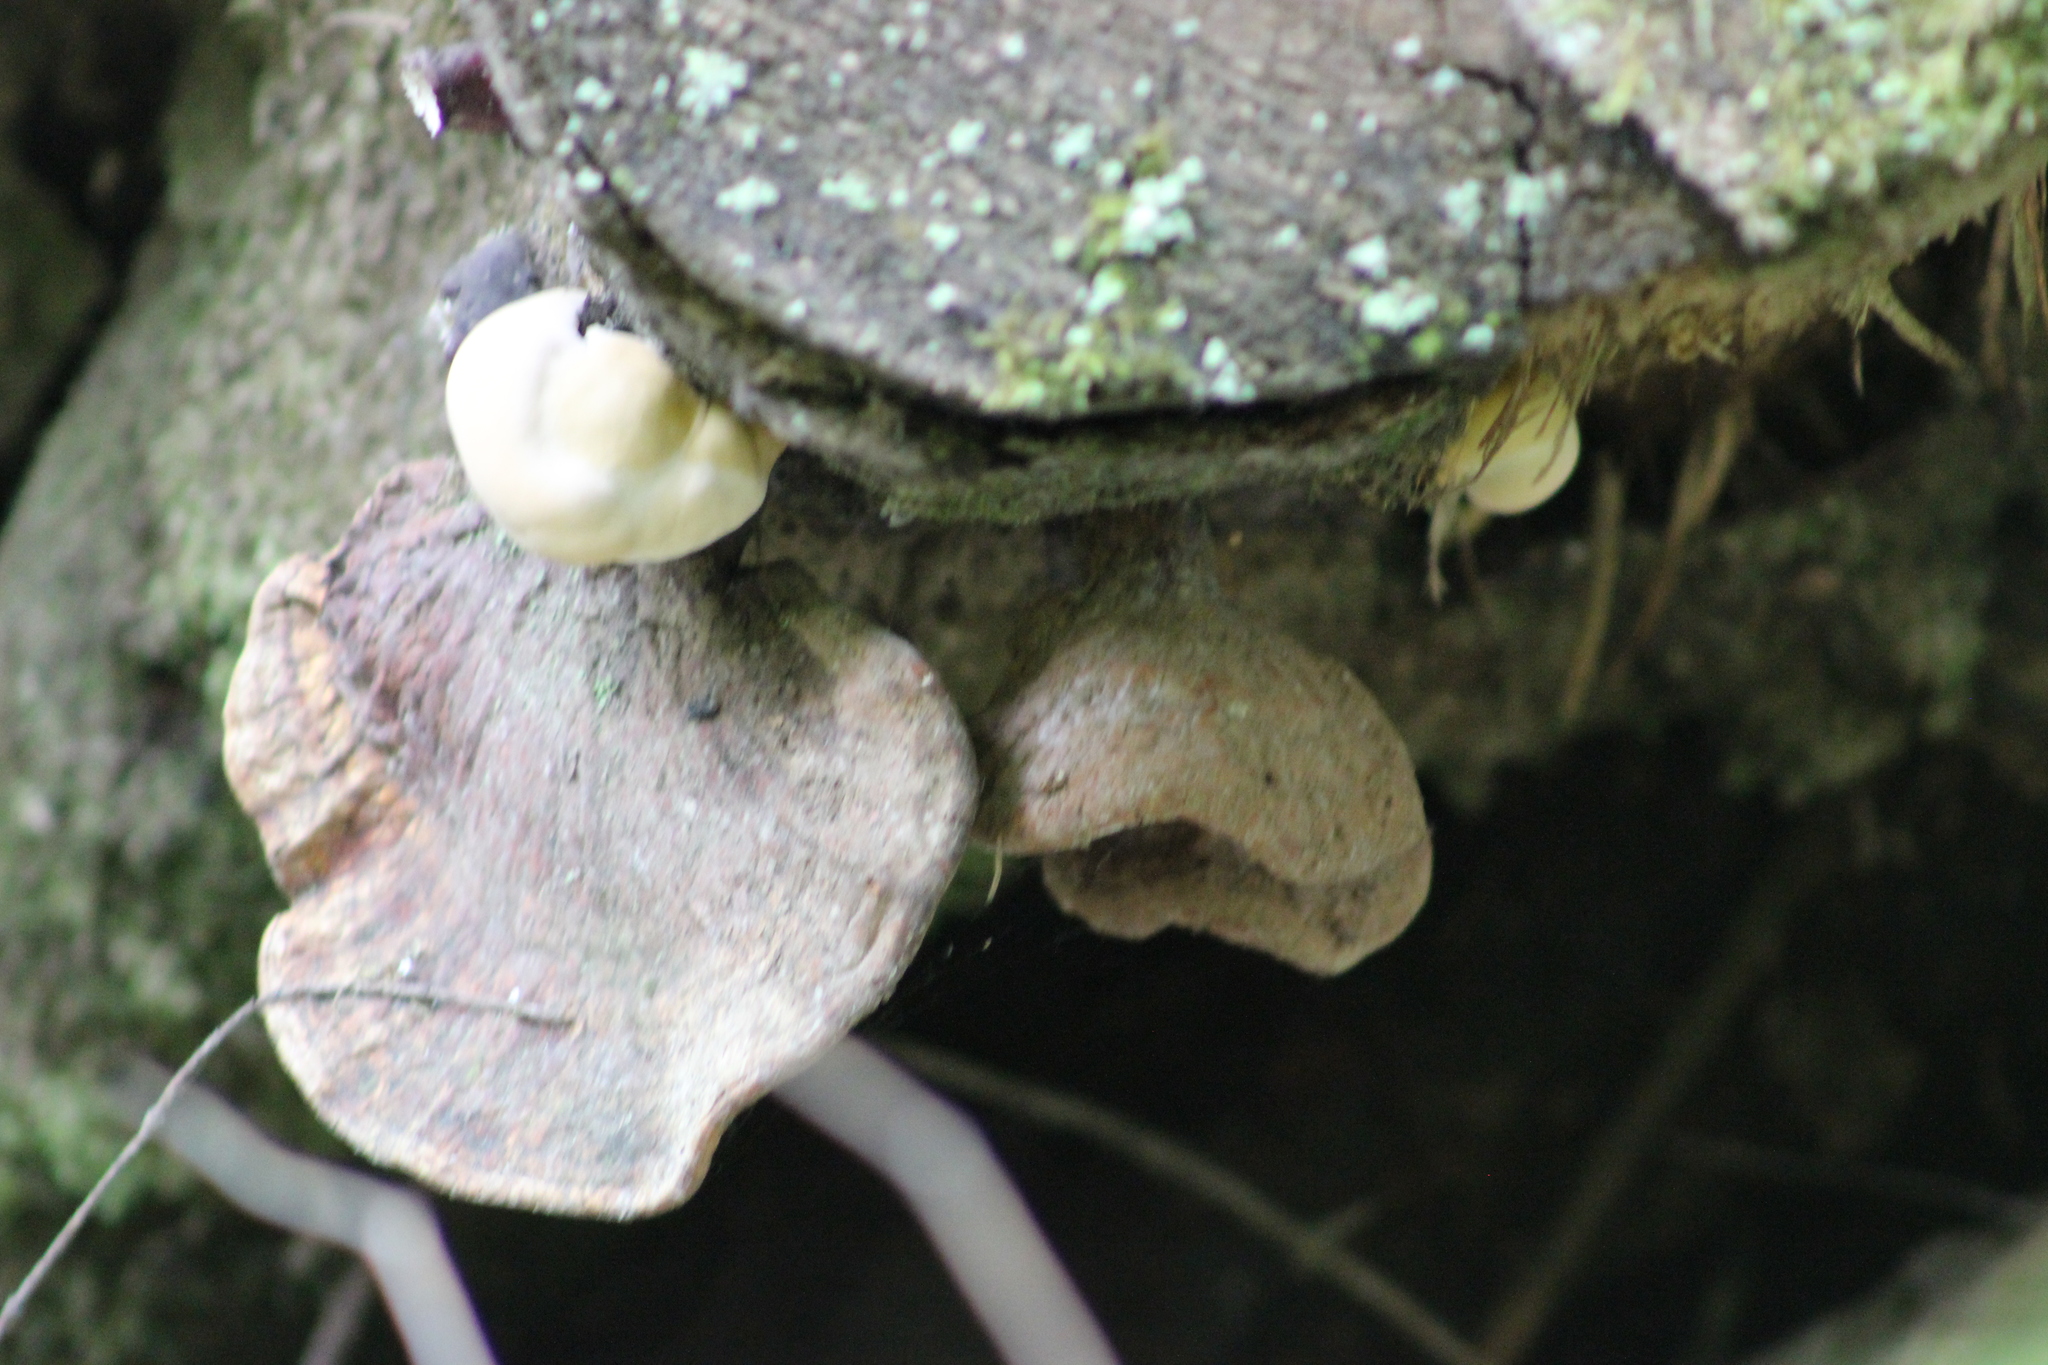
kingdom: Fungi
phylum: Basidiomycota
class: Agaricomycetes
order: Polyporales
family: Polyporaceae
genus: Ganoderma
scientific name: Ganoderma lucidum
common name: Lacquered bracket
